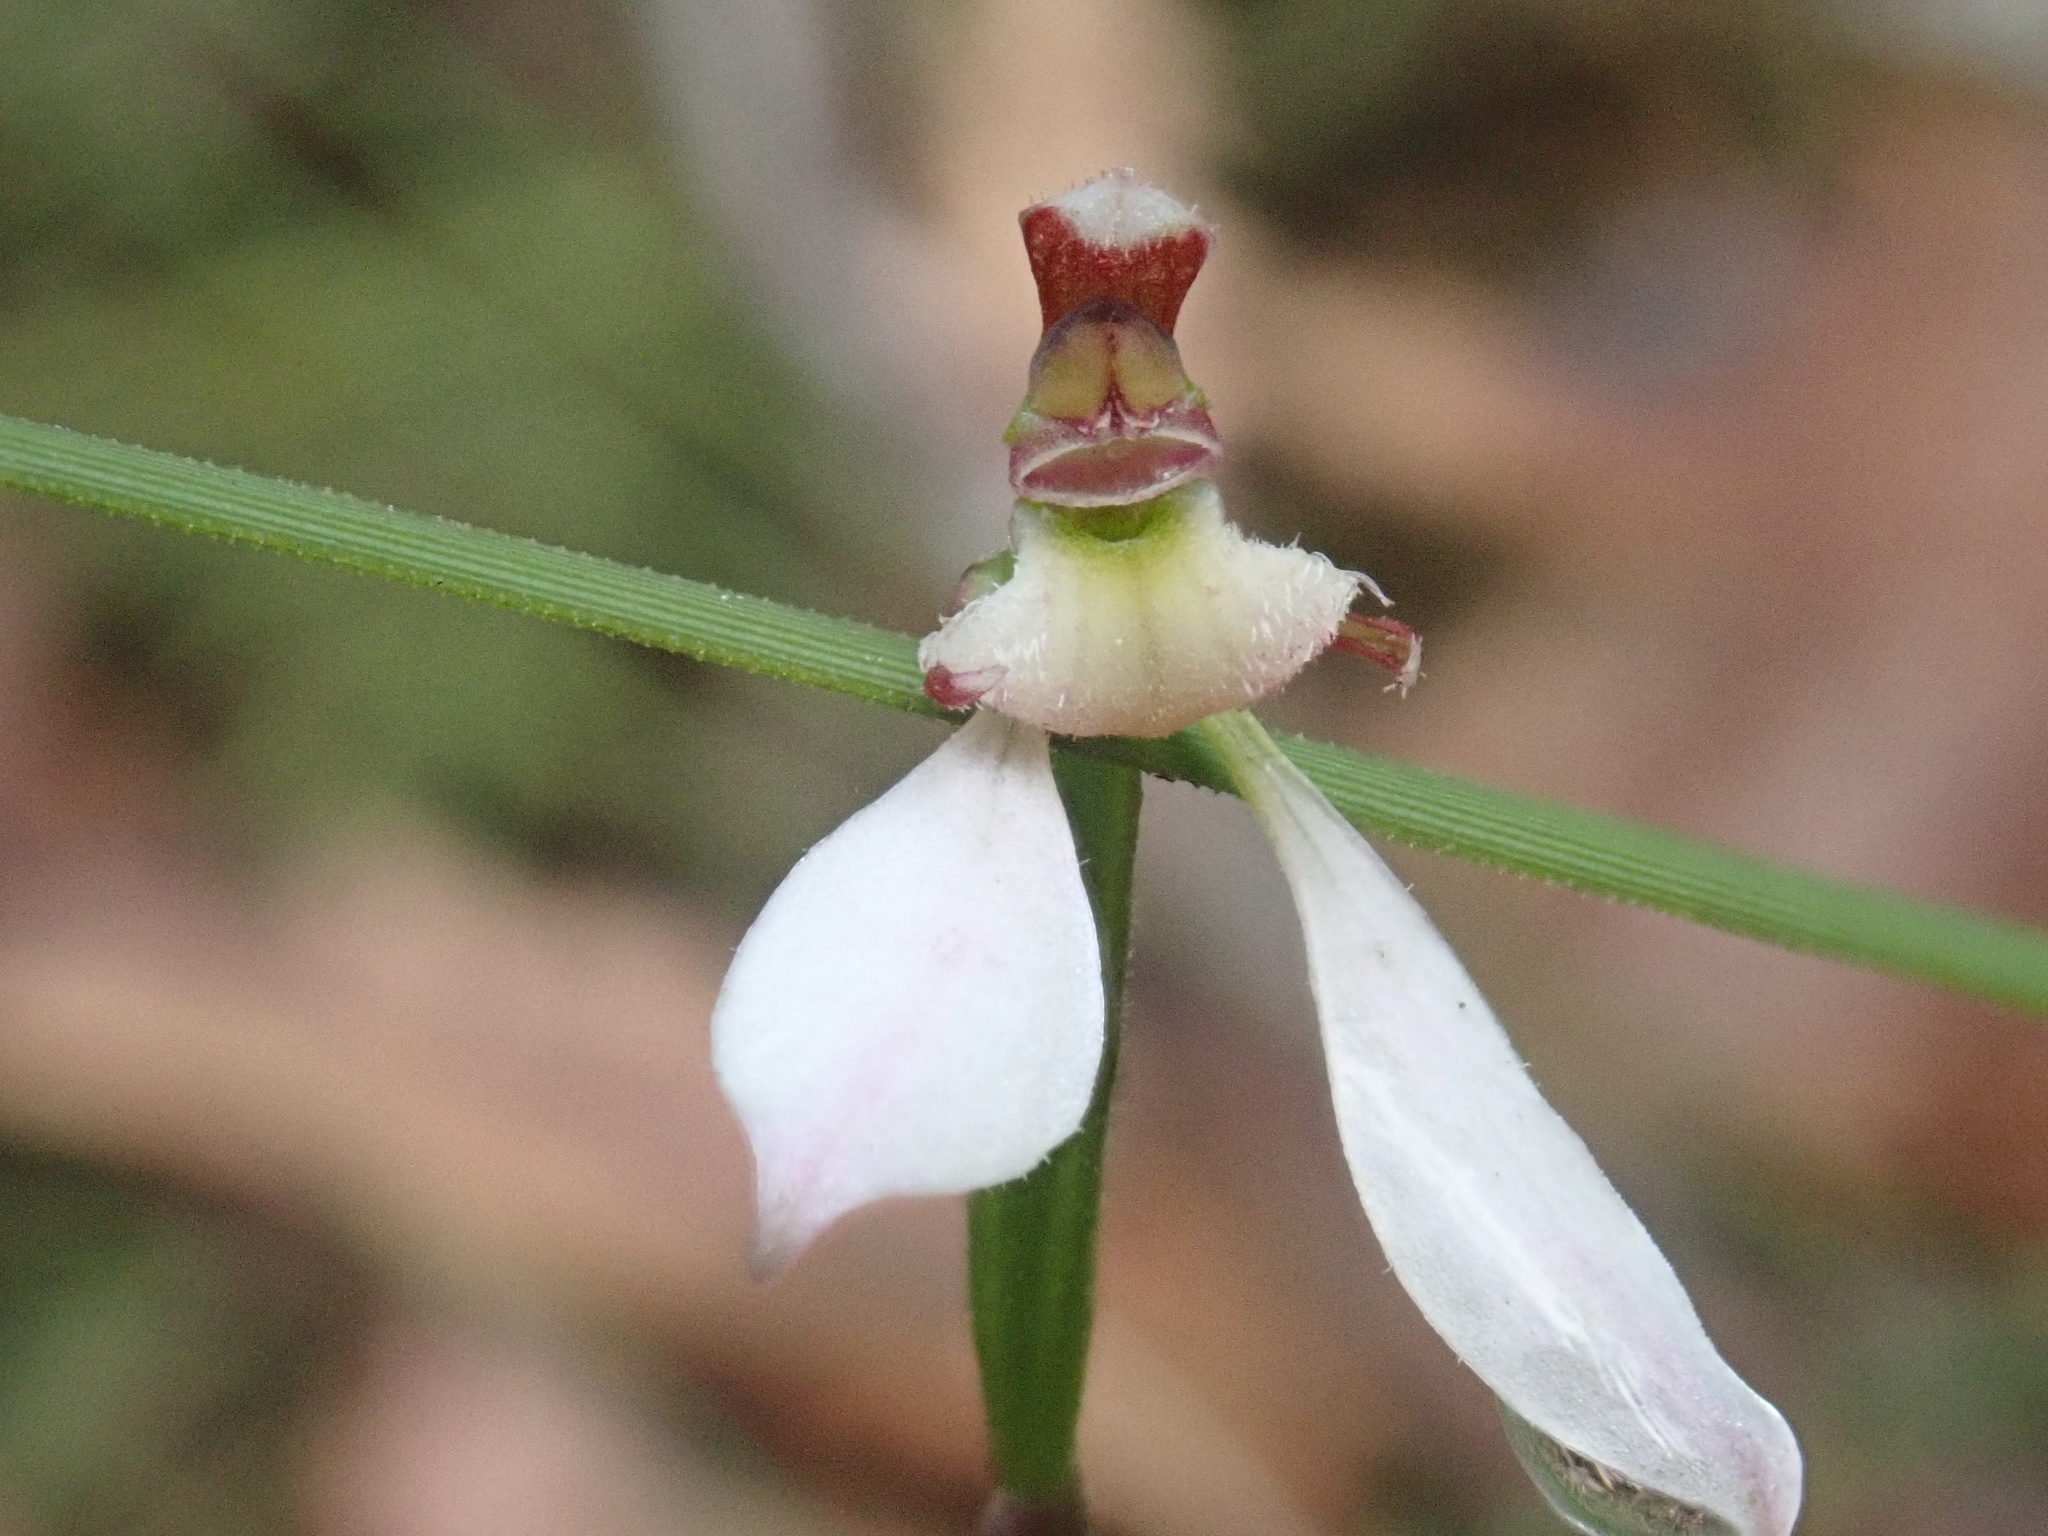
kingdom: Plantae
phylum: Tracheophyta
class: Liliopsida
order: Asparagales
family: Orchidaceae
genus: Eriochilus
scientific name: Eriochilus cucullatus
